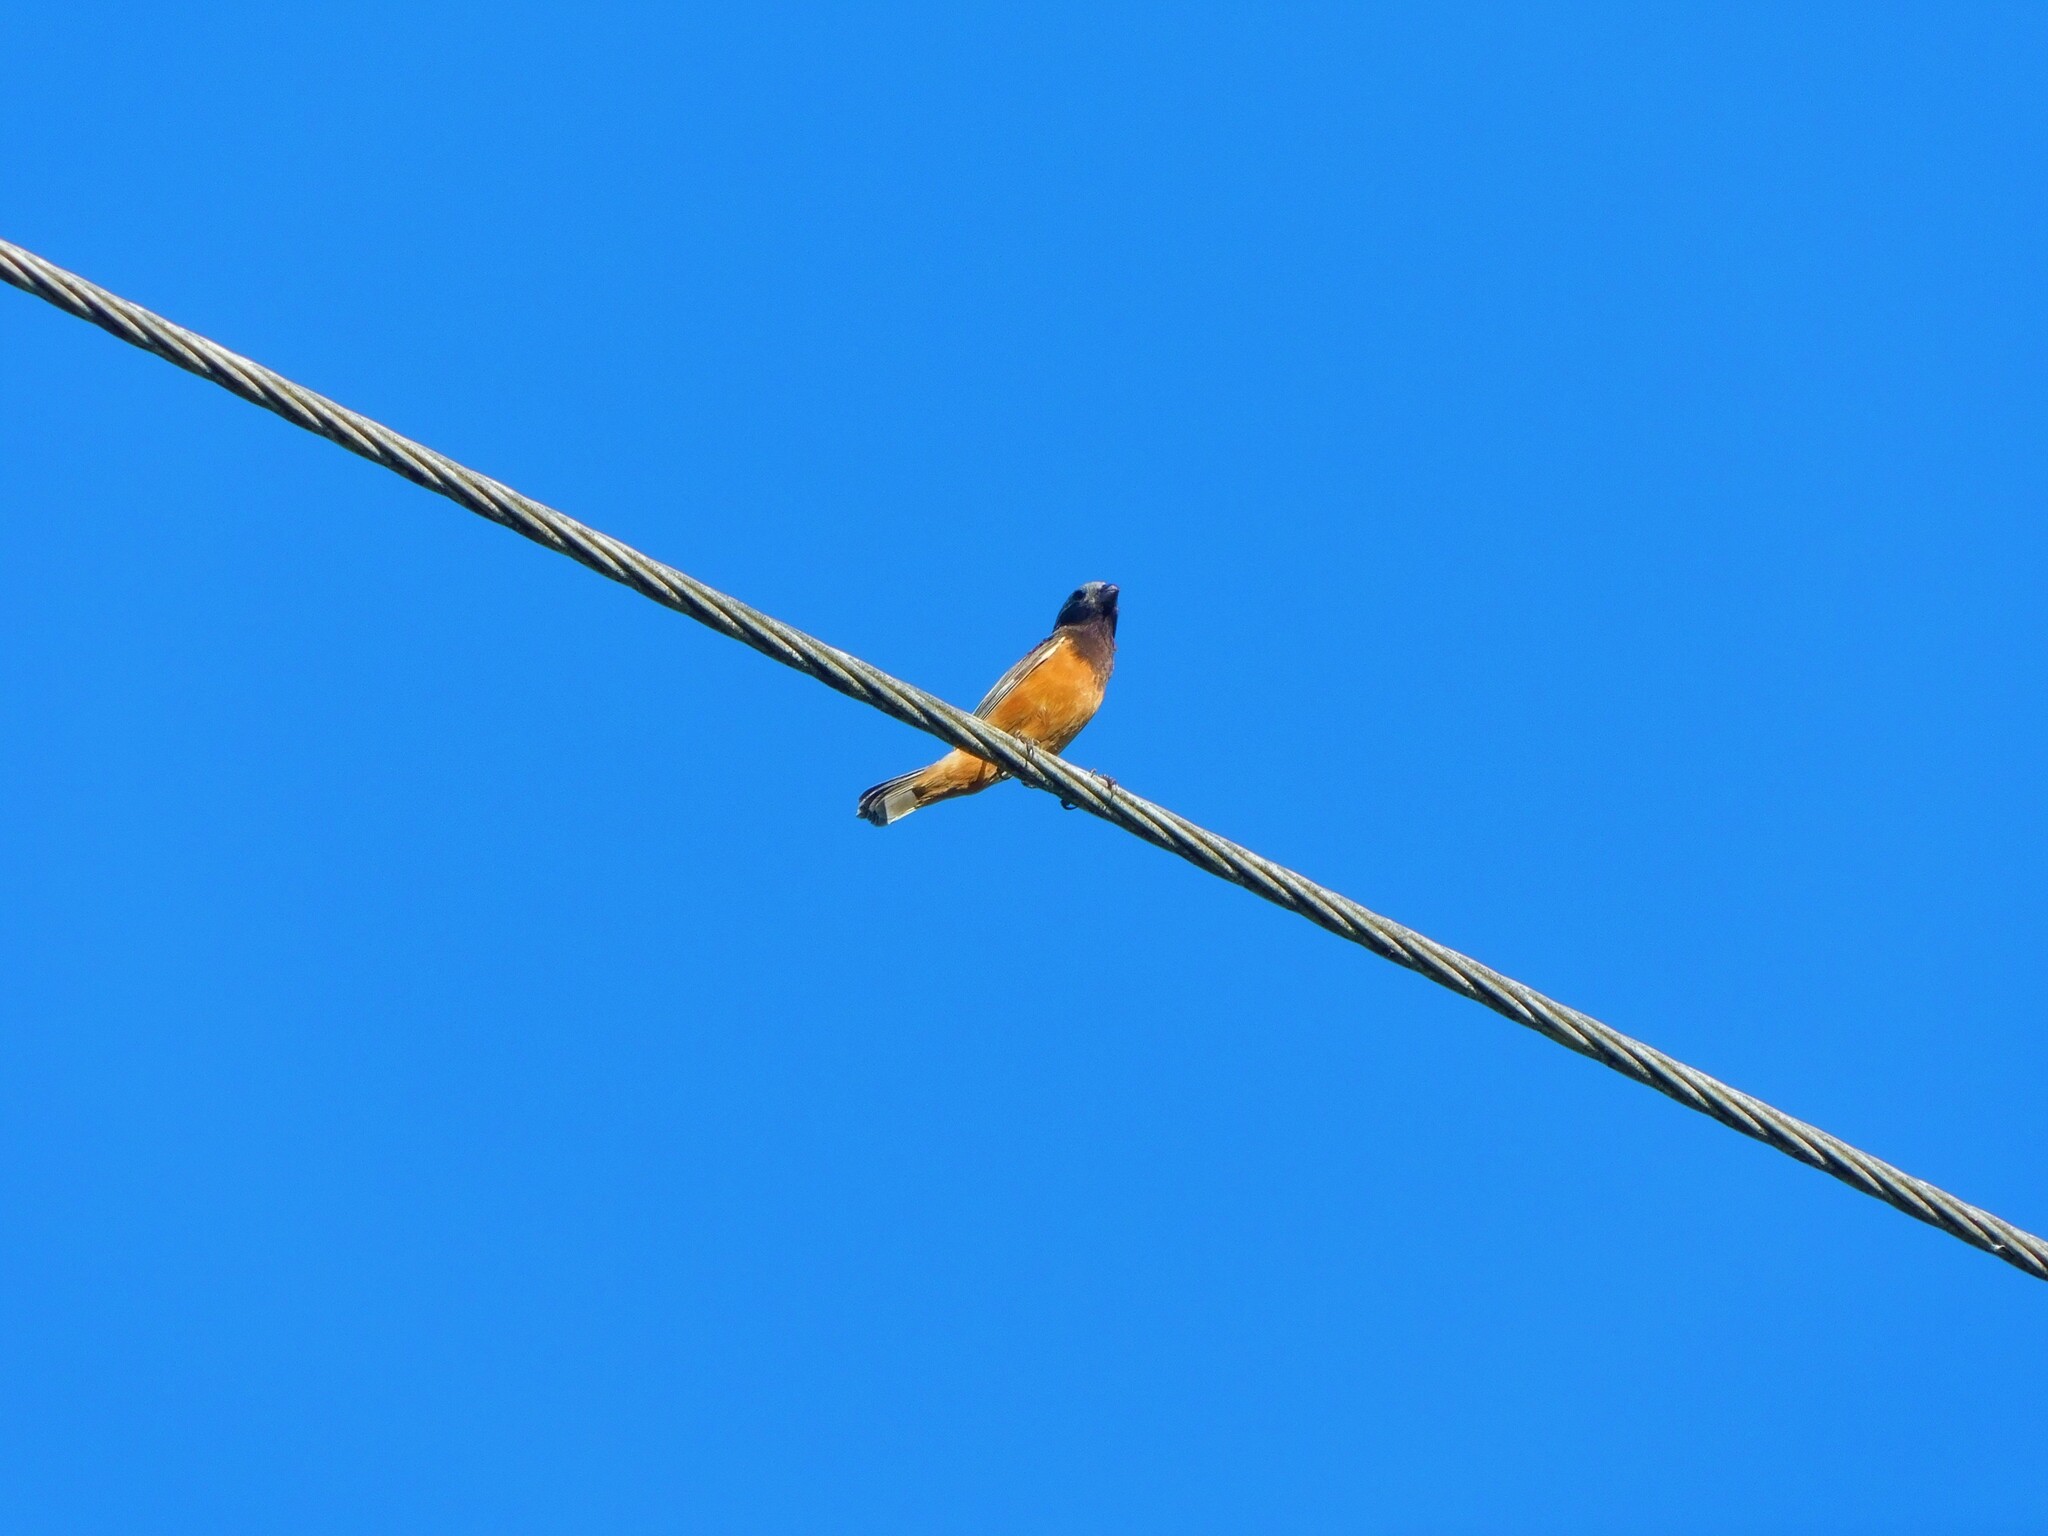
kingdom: Animalia
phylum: Chordata
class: Aves
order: Passeriformes
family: Thraupidae
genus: Sporophila
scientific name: Sporophila ruficollis
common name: Dark-throated seedeater
